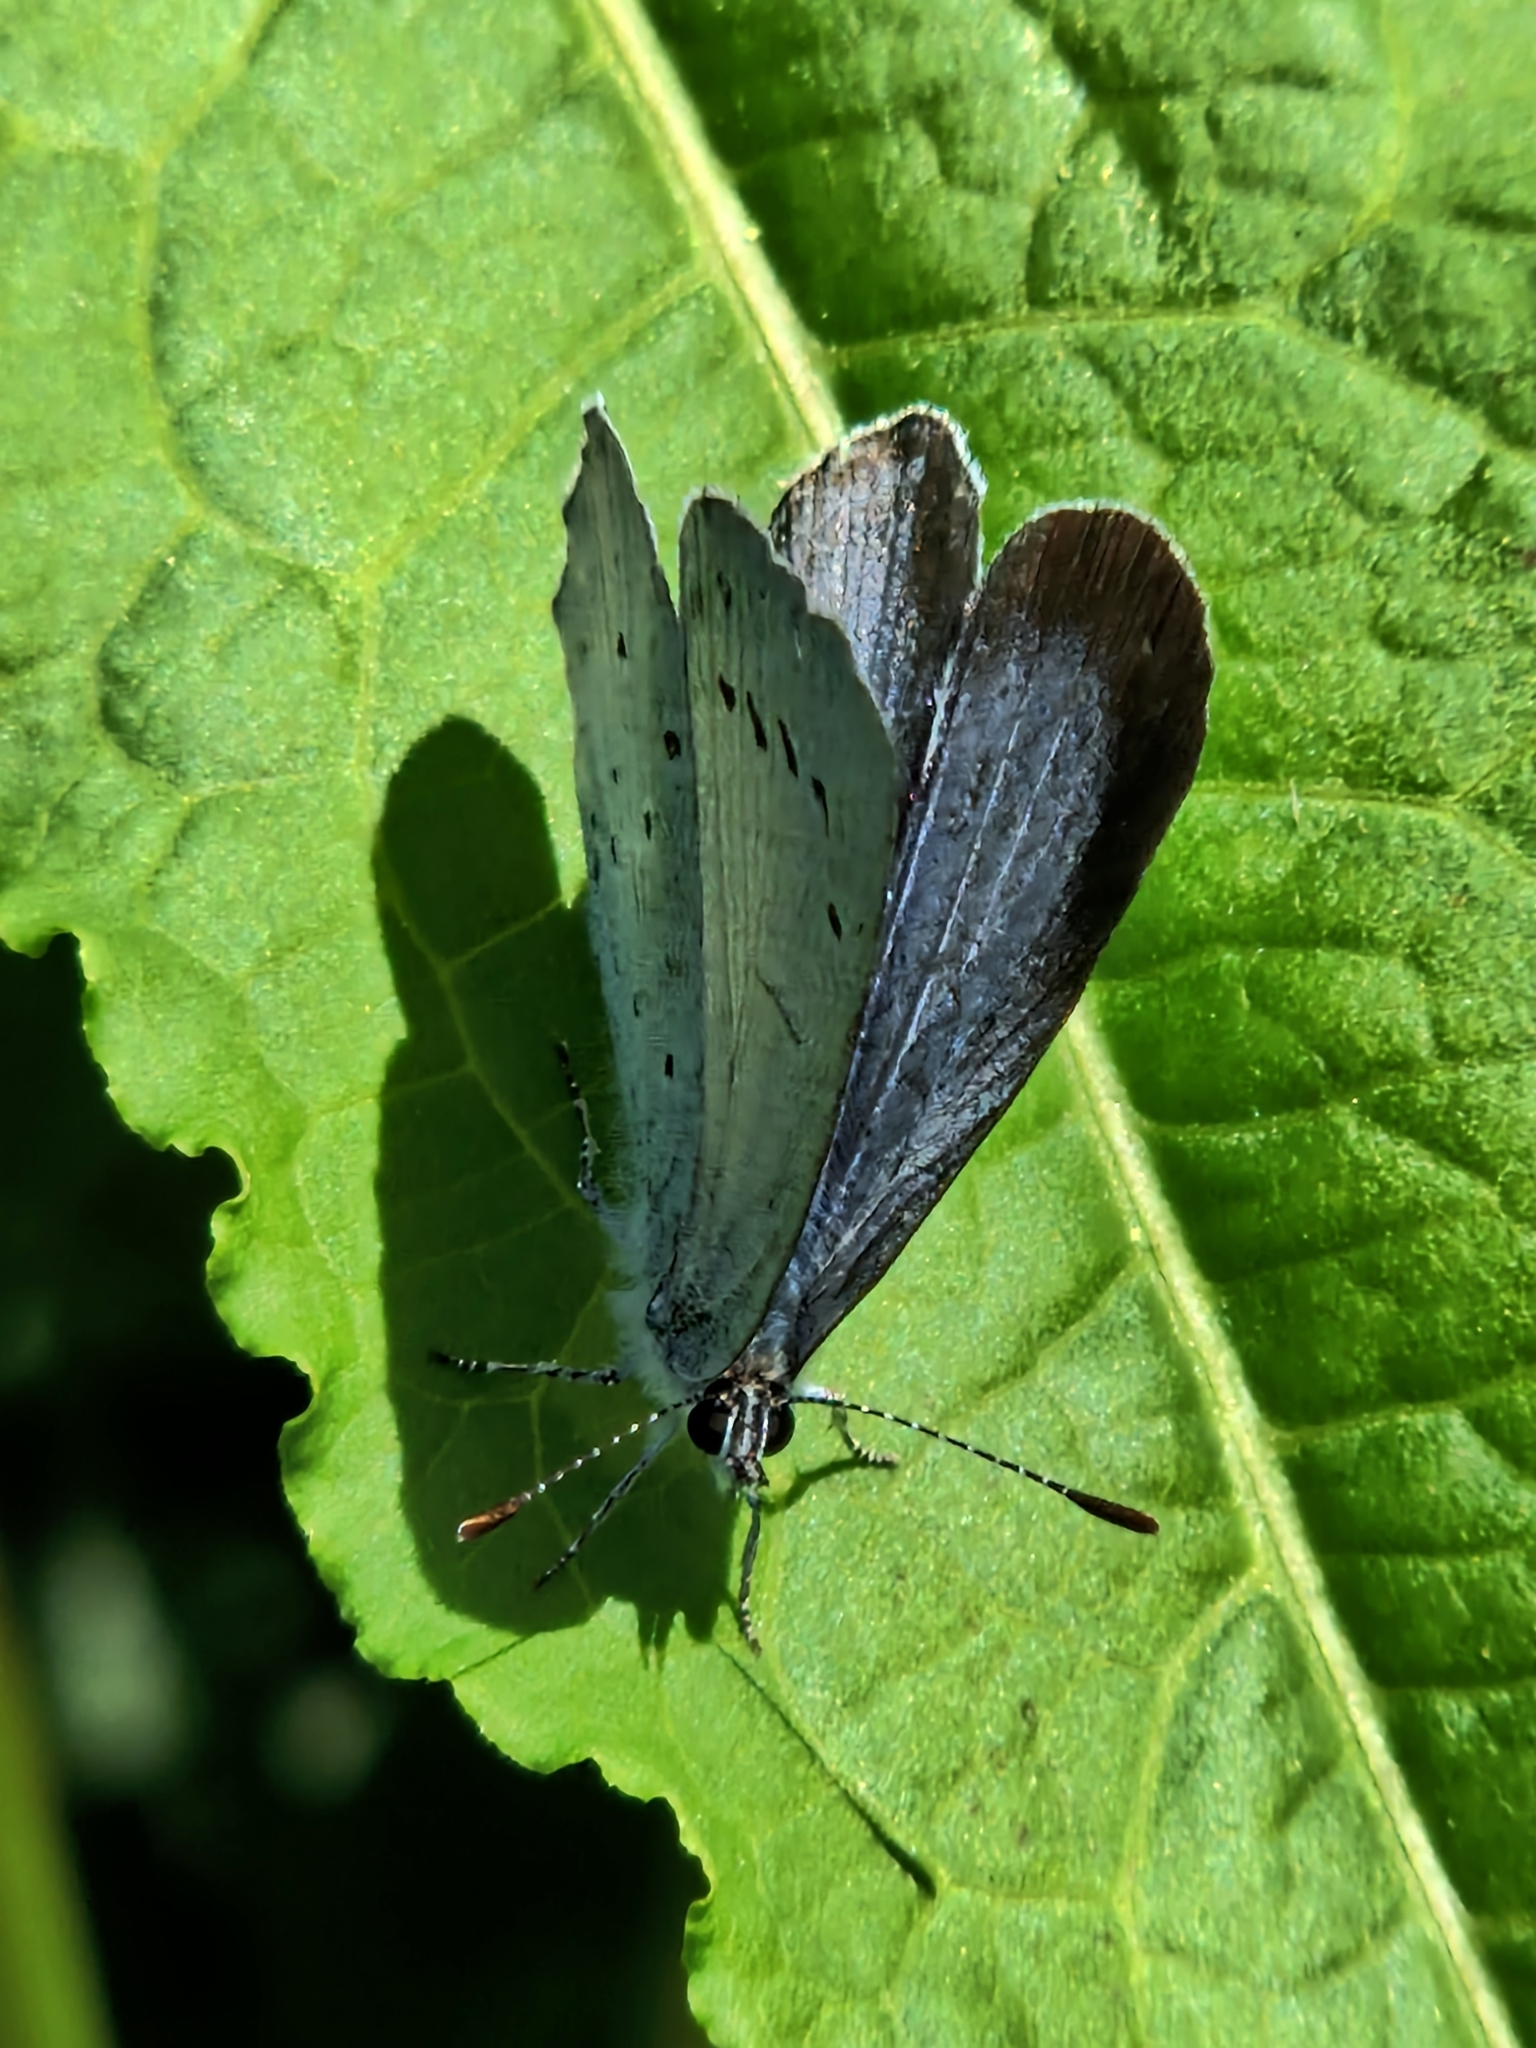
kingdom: Animalia
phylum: Arthropoda
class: Insecta
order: Lepidoptera
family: Lycaenidae
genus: Celastrina
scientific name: Celastrina argiolus
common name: Holly blue
